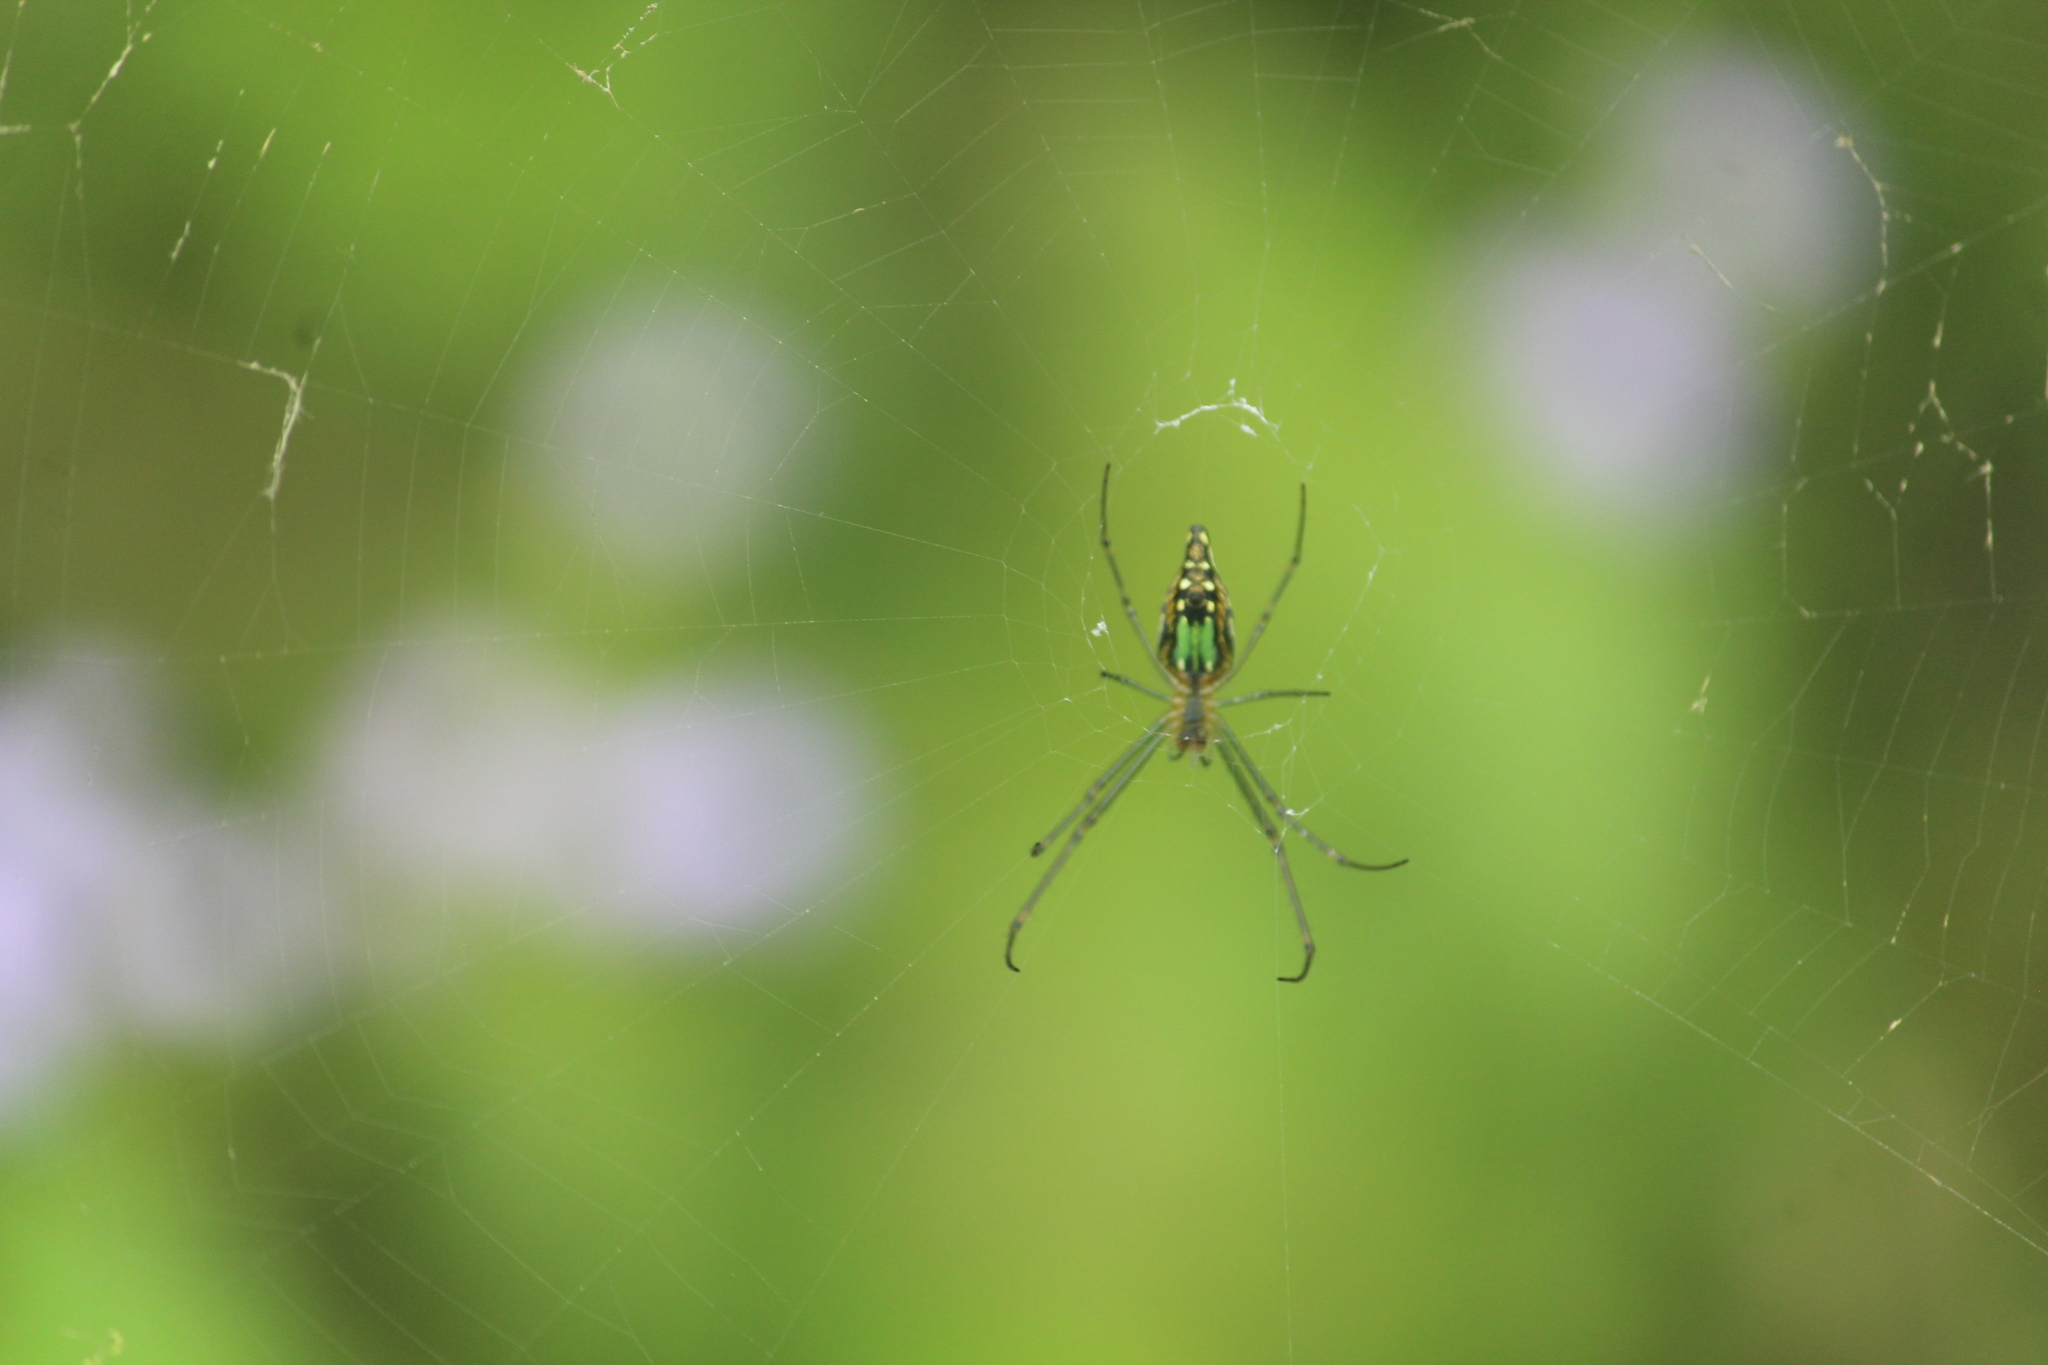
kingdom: Animalia
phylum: Arthropoda
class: Arachnida
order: Araneae
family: Tetragnathidae
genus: Leucauge
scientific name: Leucauge decorata
